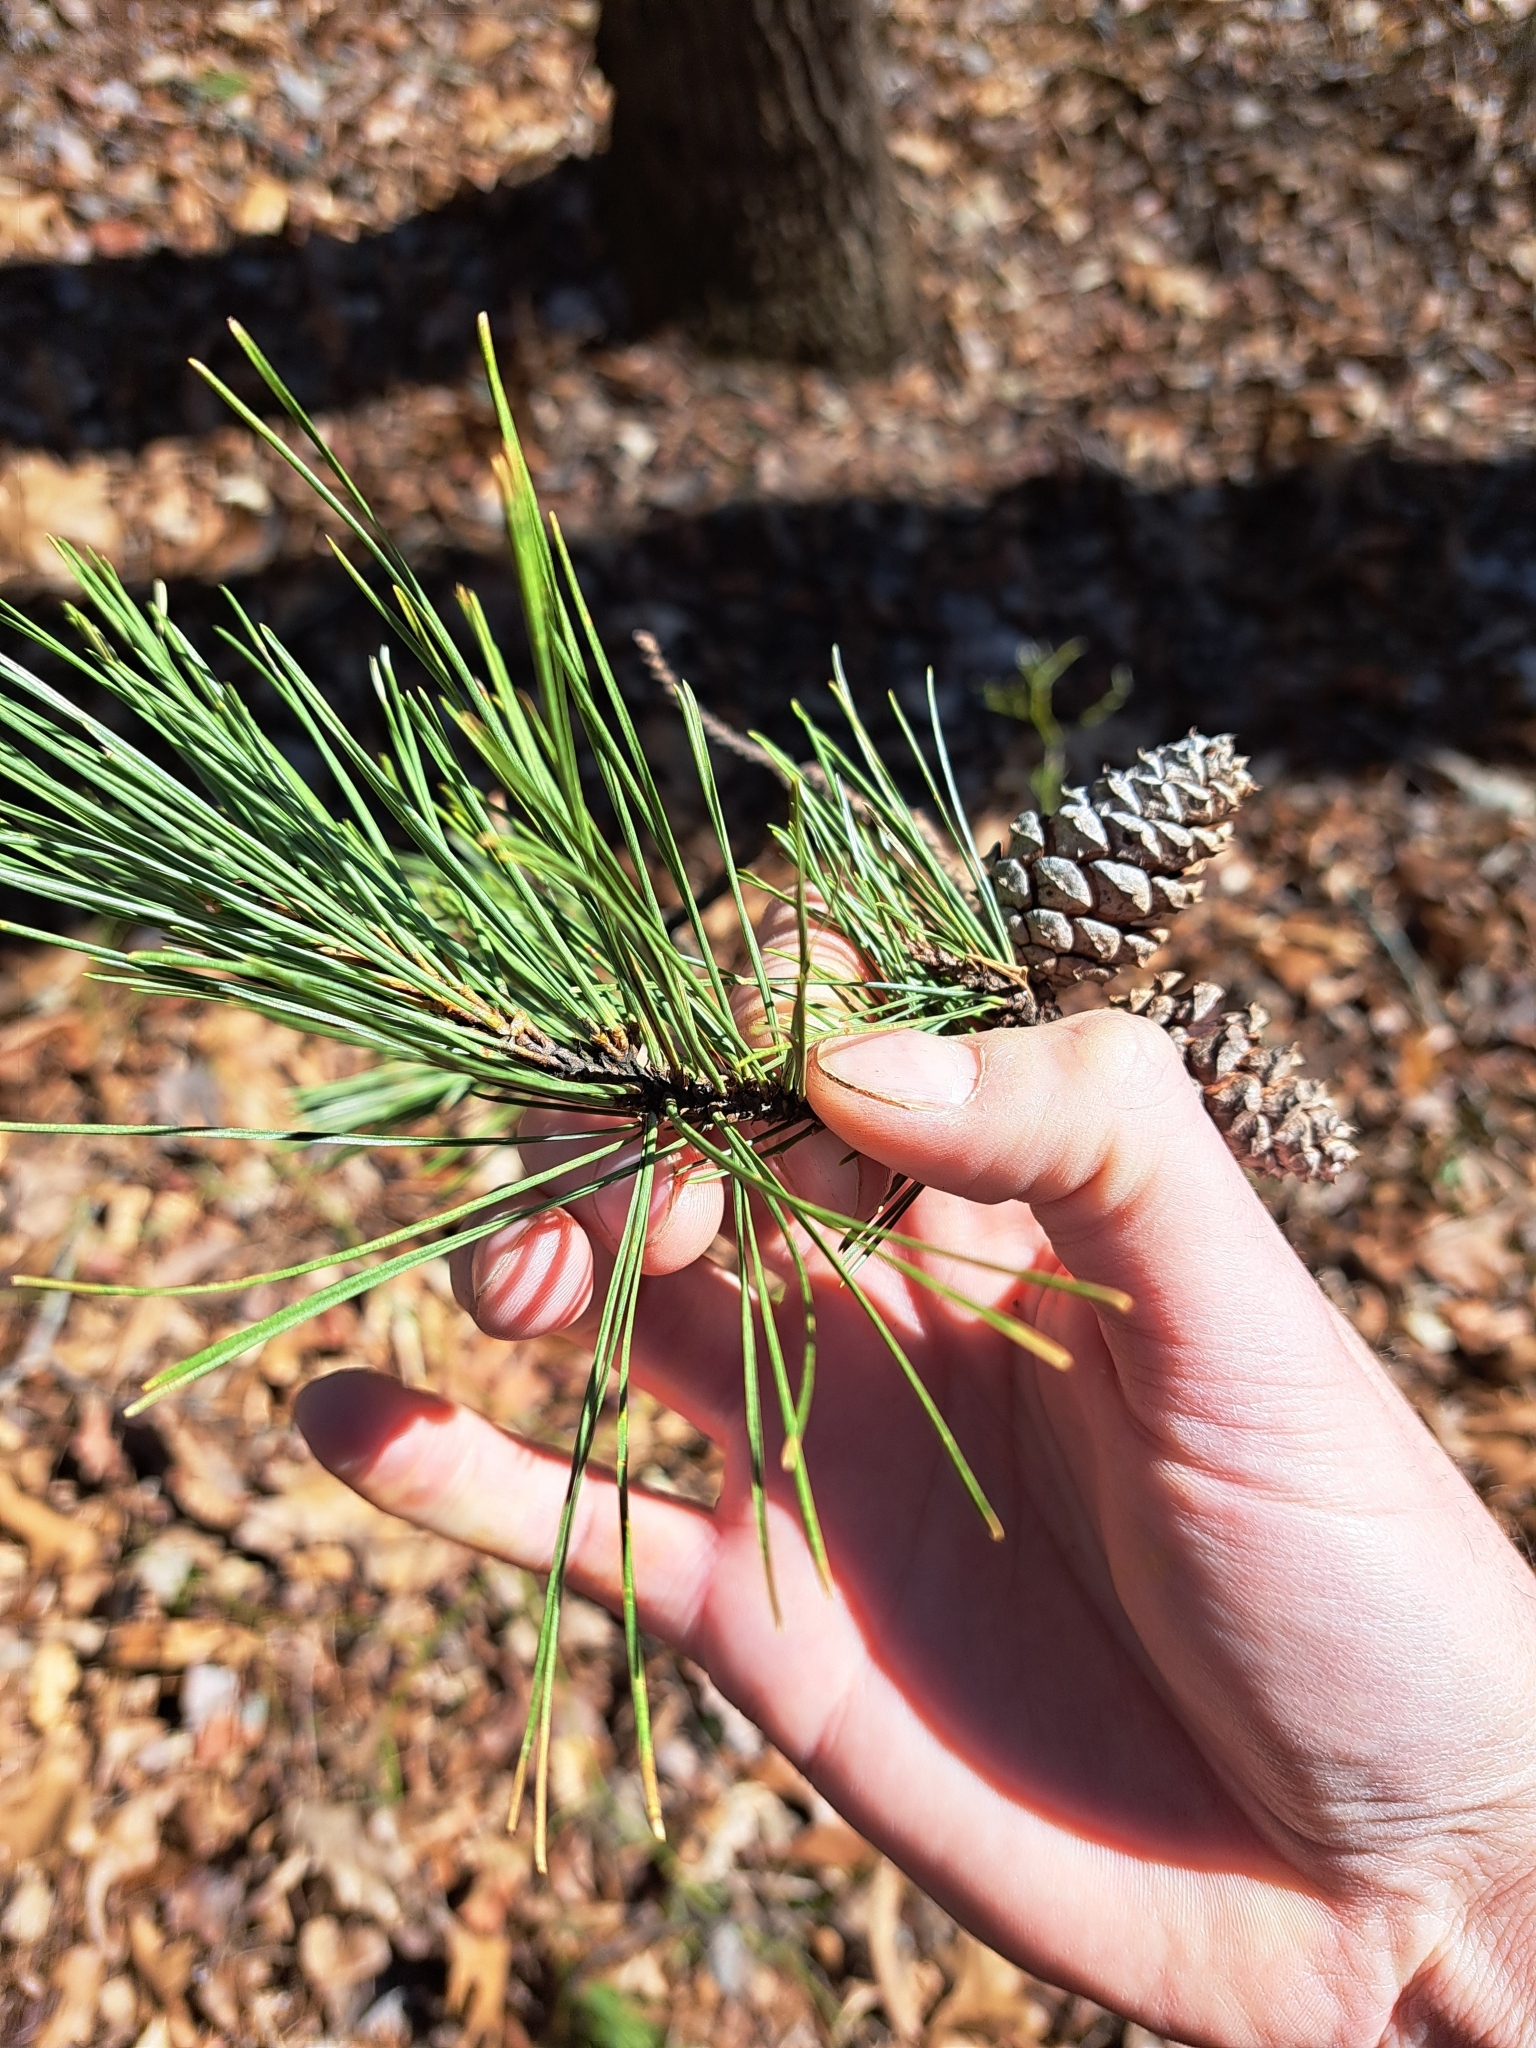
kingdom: Plantae
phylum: Tracheophyta
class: Pinopsida
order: Pinales
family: Pinaceae
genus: Pinus
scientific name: Pinus echinata
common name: Shortleaf pine
